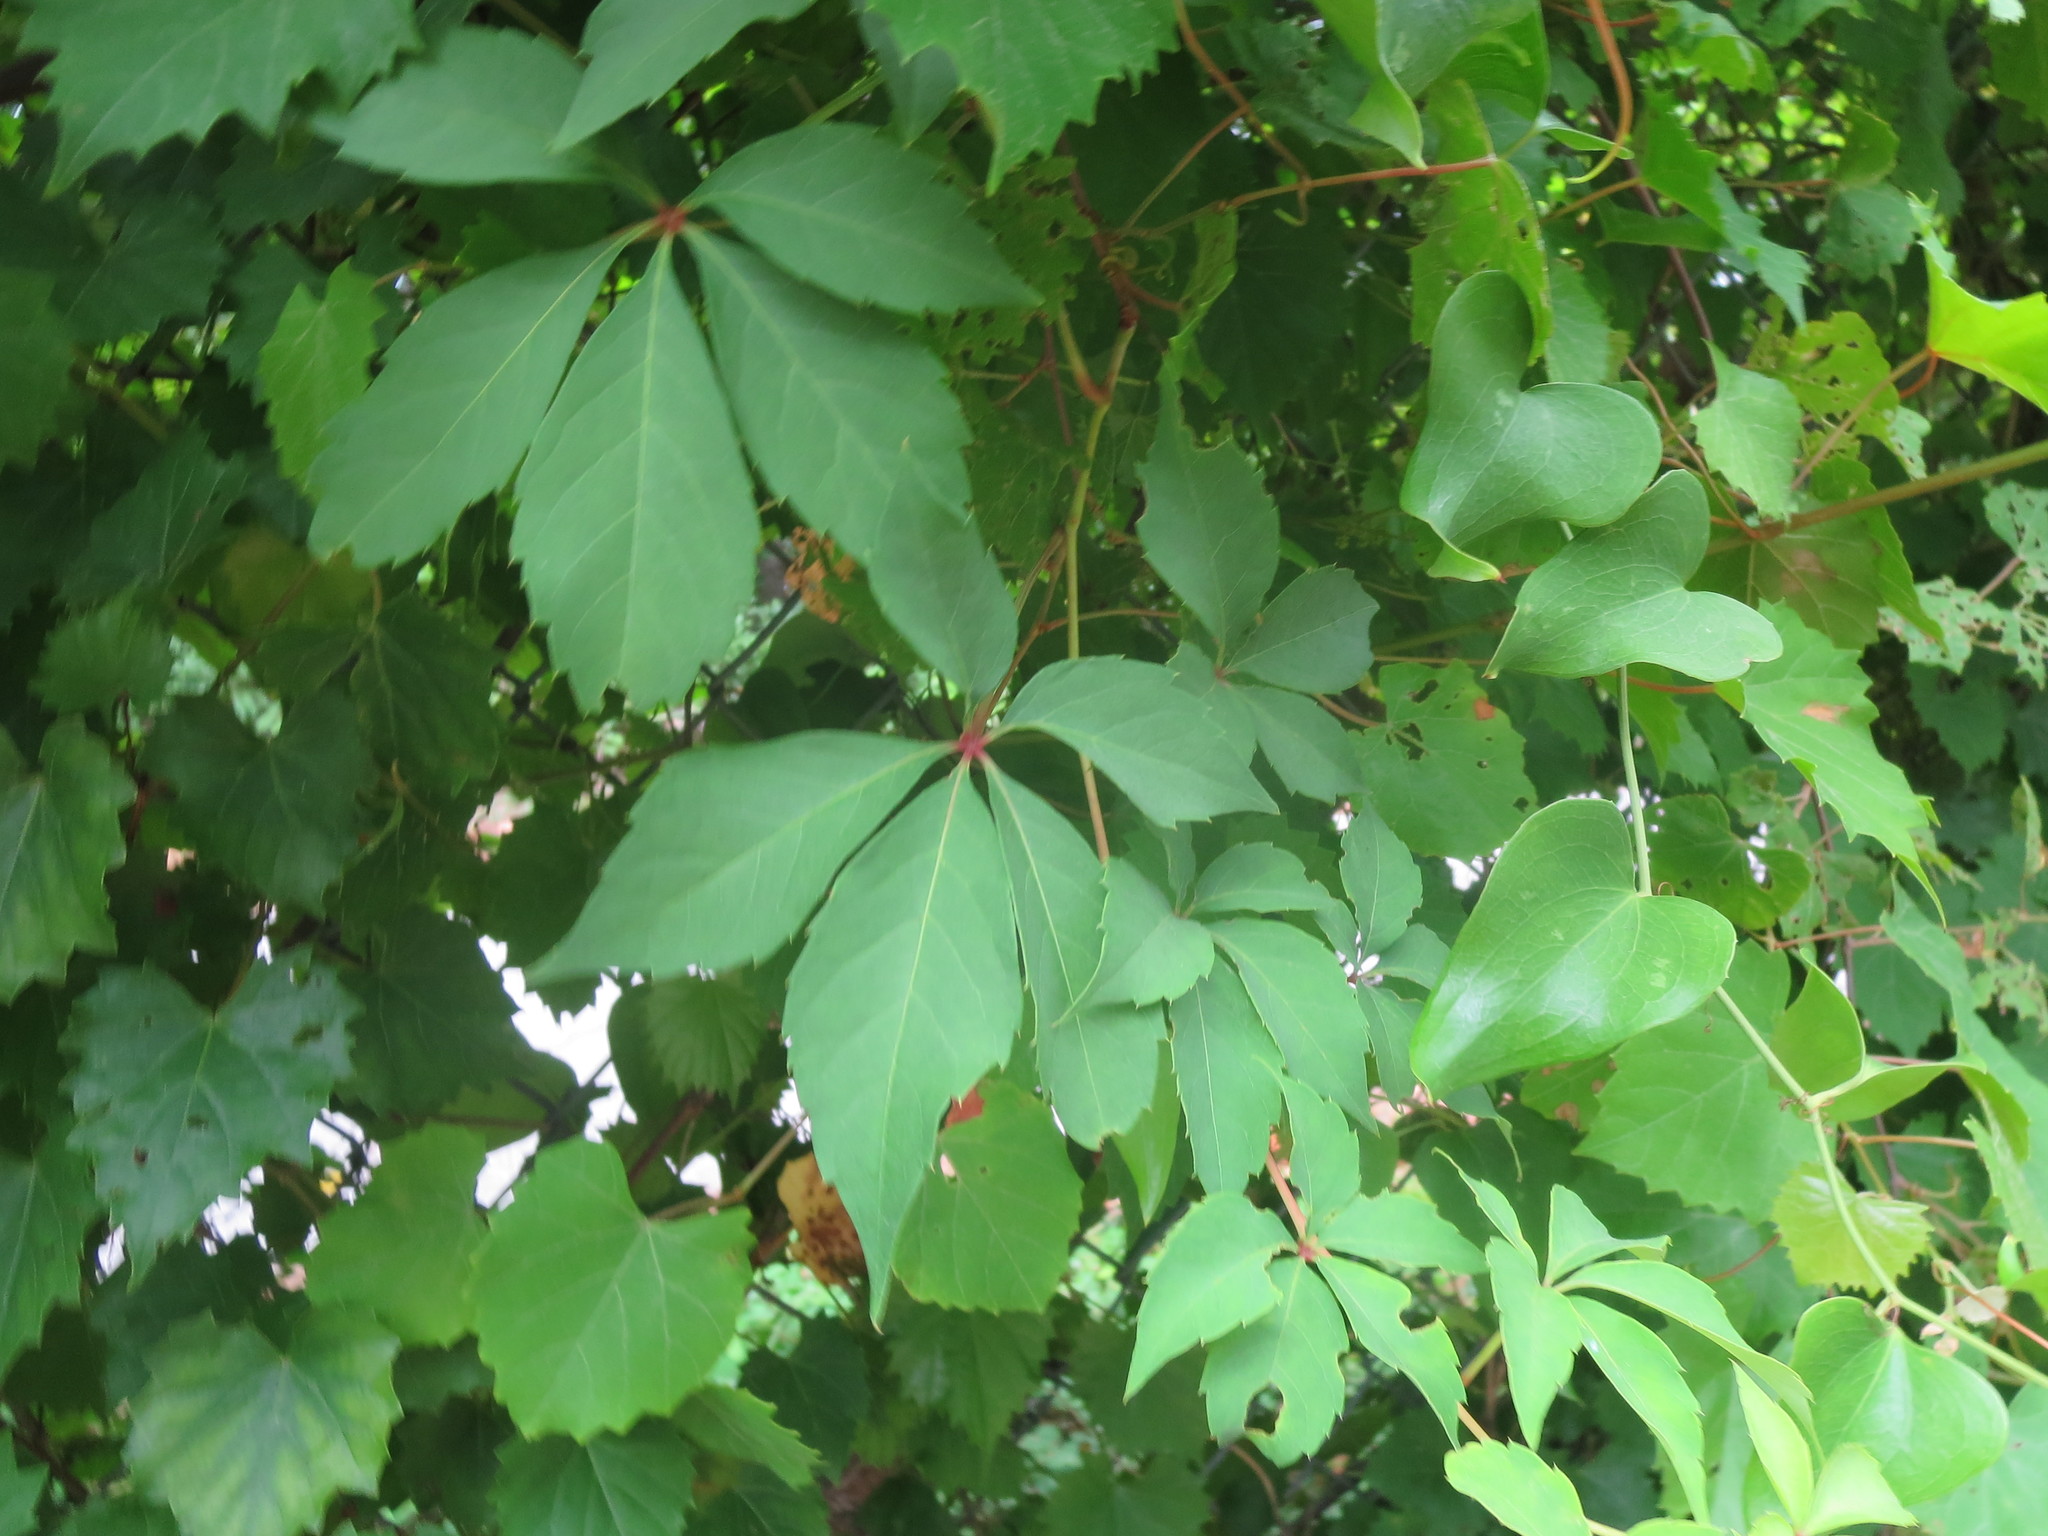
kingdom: Plantae
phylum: Tracheophyta
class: Magnoliopsida
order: Vitales
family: Vitaceae
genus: Parthenocissus
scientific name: Parthenocissus quinquefolia
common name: Virginia-creeper
